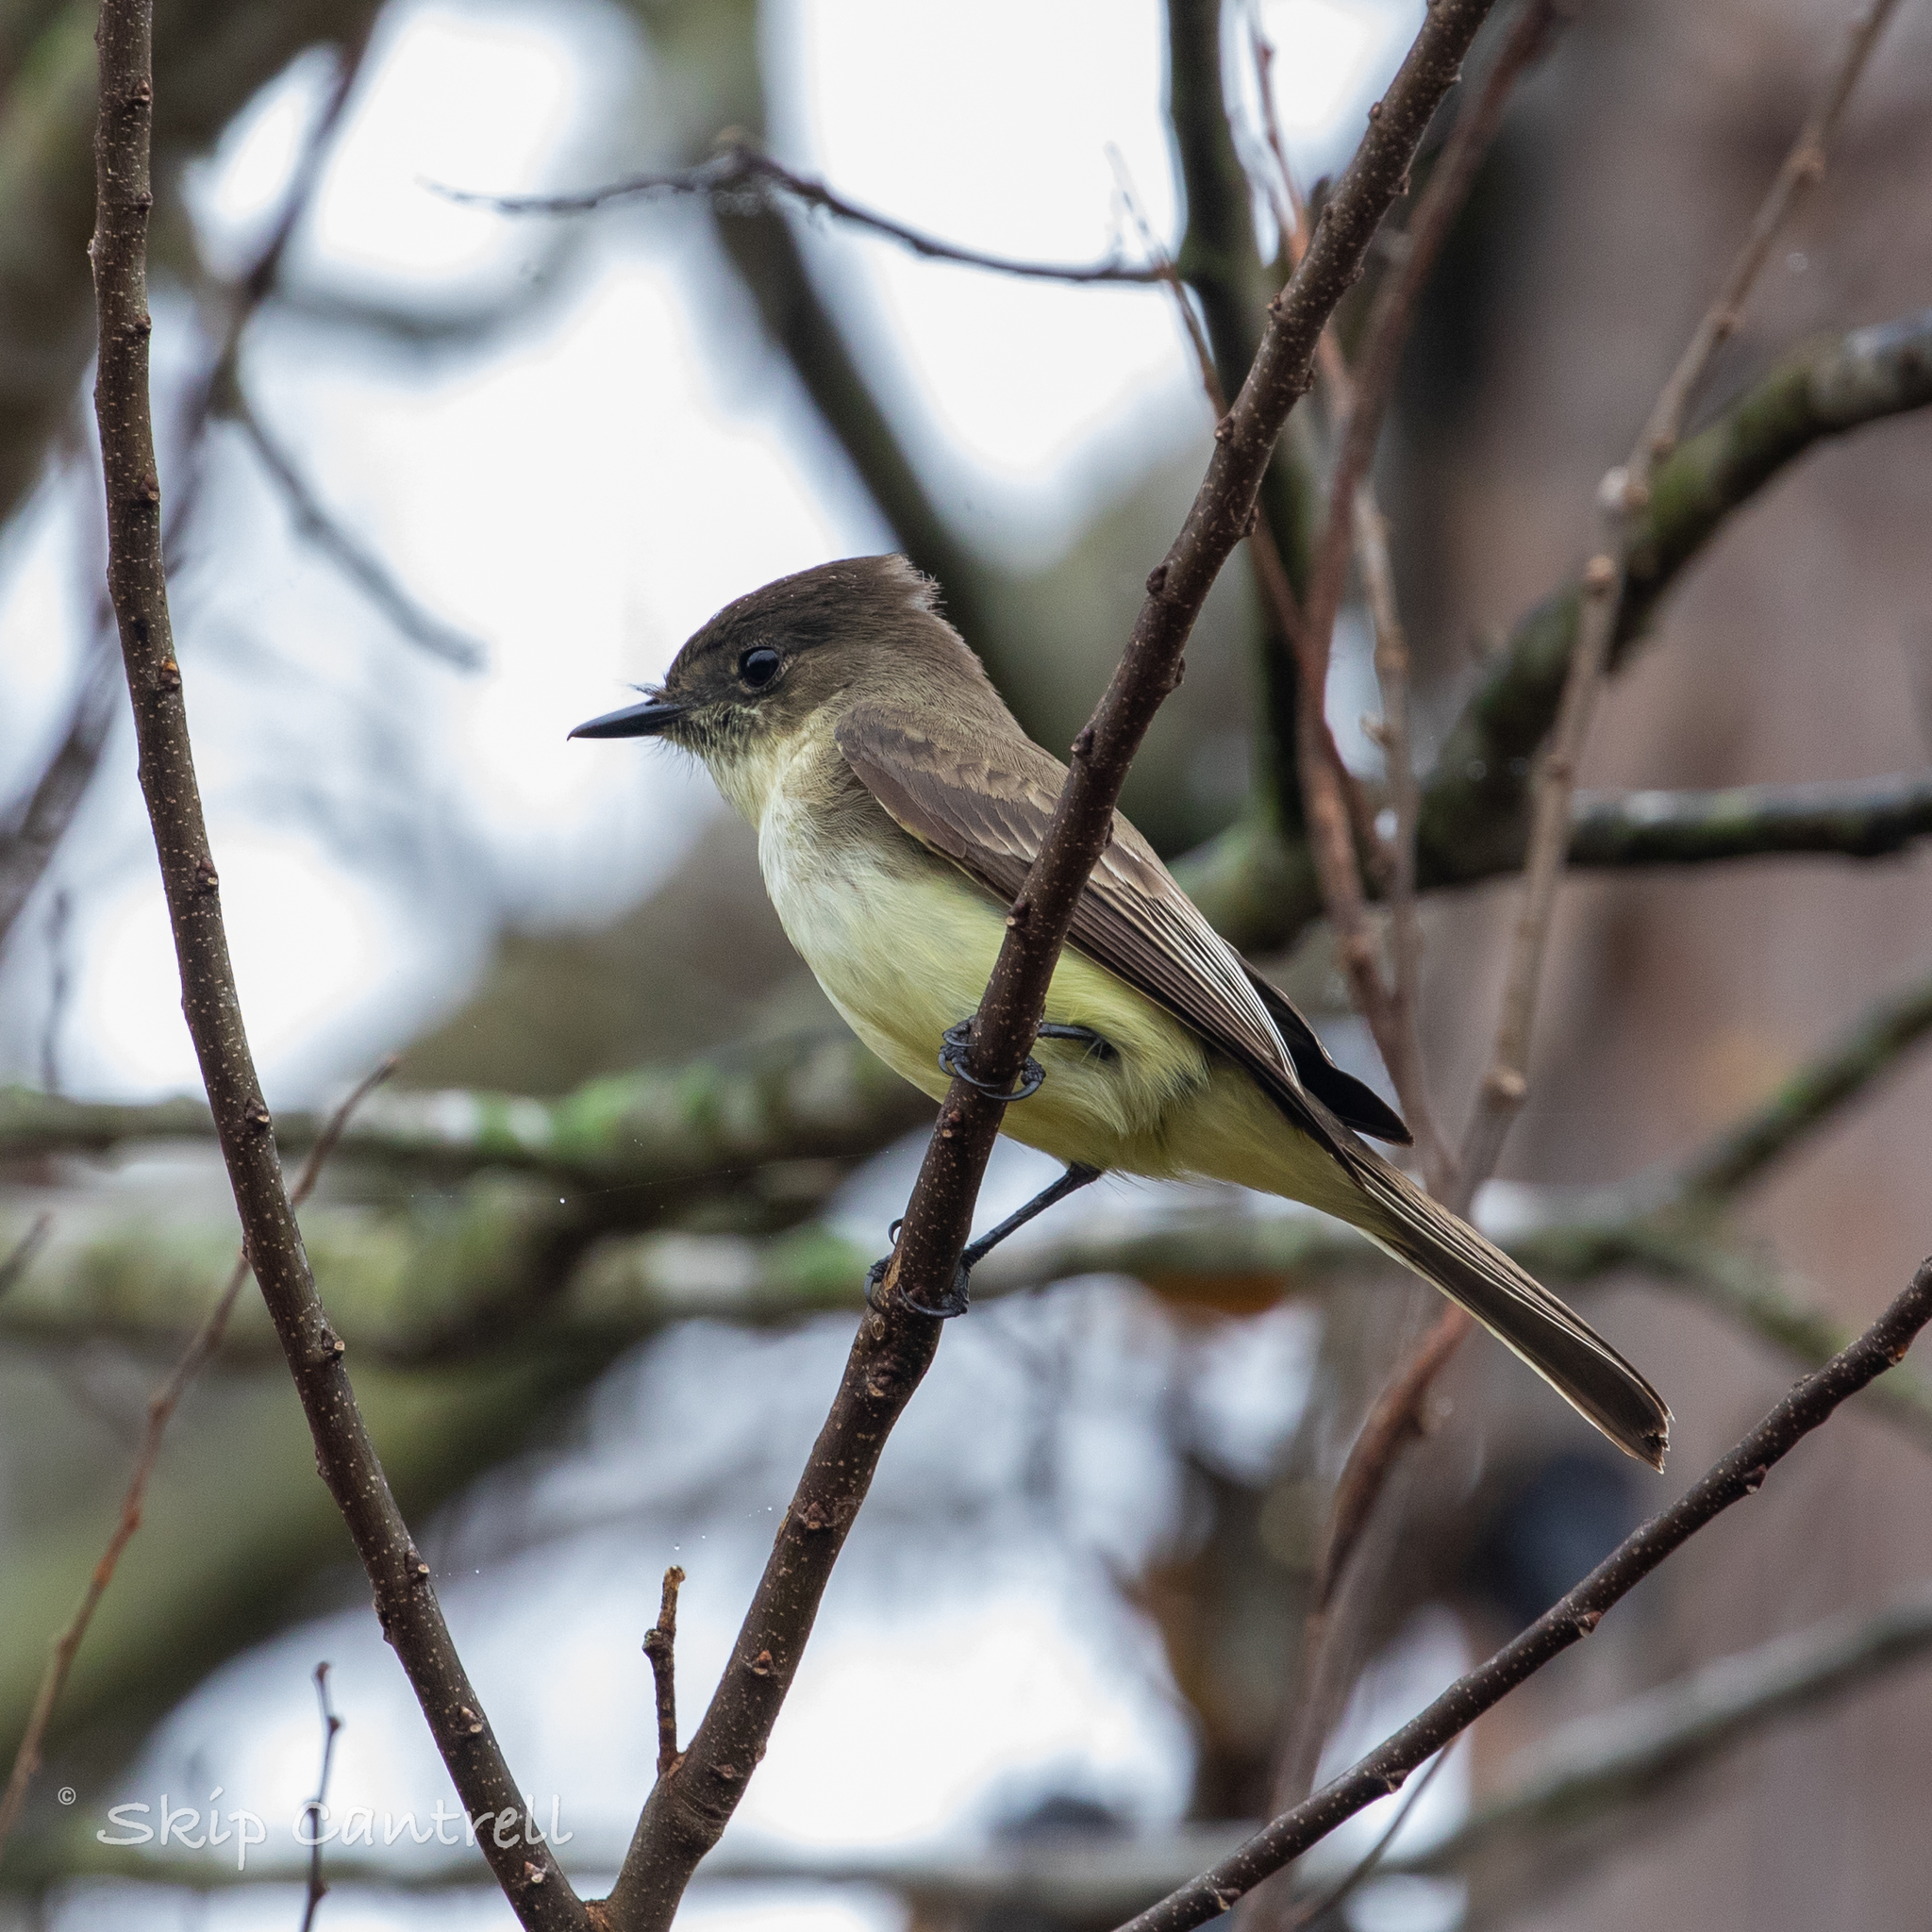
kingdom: Animalia
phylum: Chordata
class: Aves
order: Passeriformes
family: Tyrannidae
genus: Sayornis
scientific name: Sayornis phoebe
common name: Eastern phoebe
